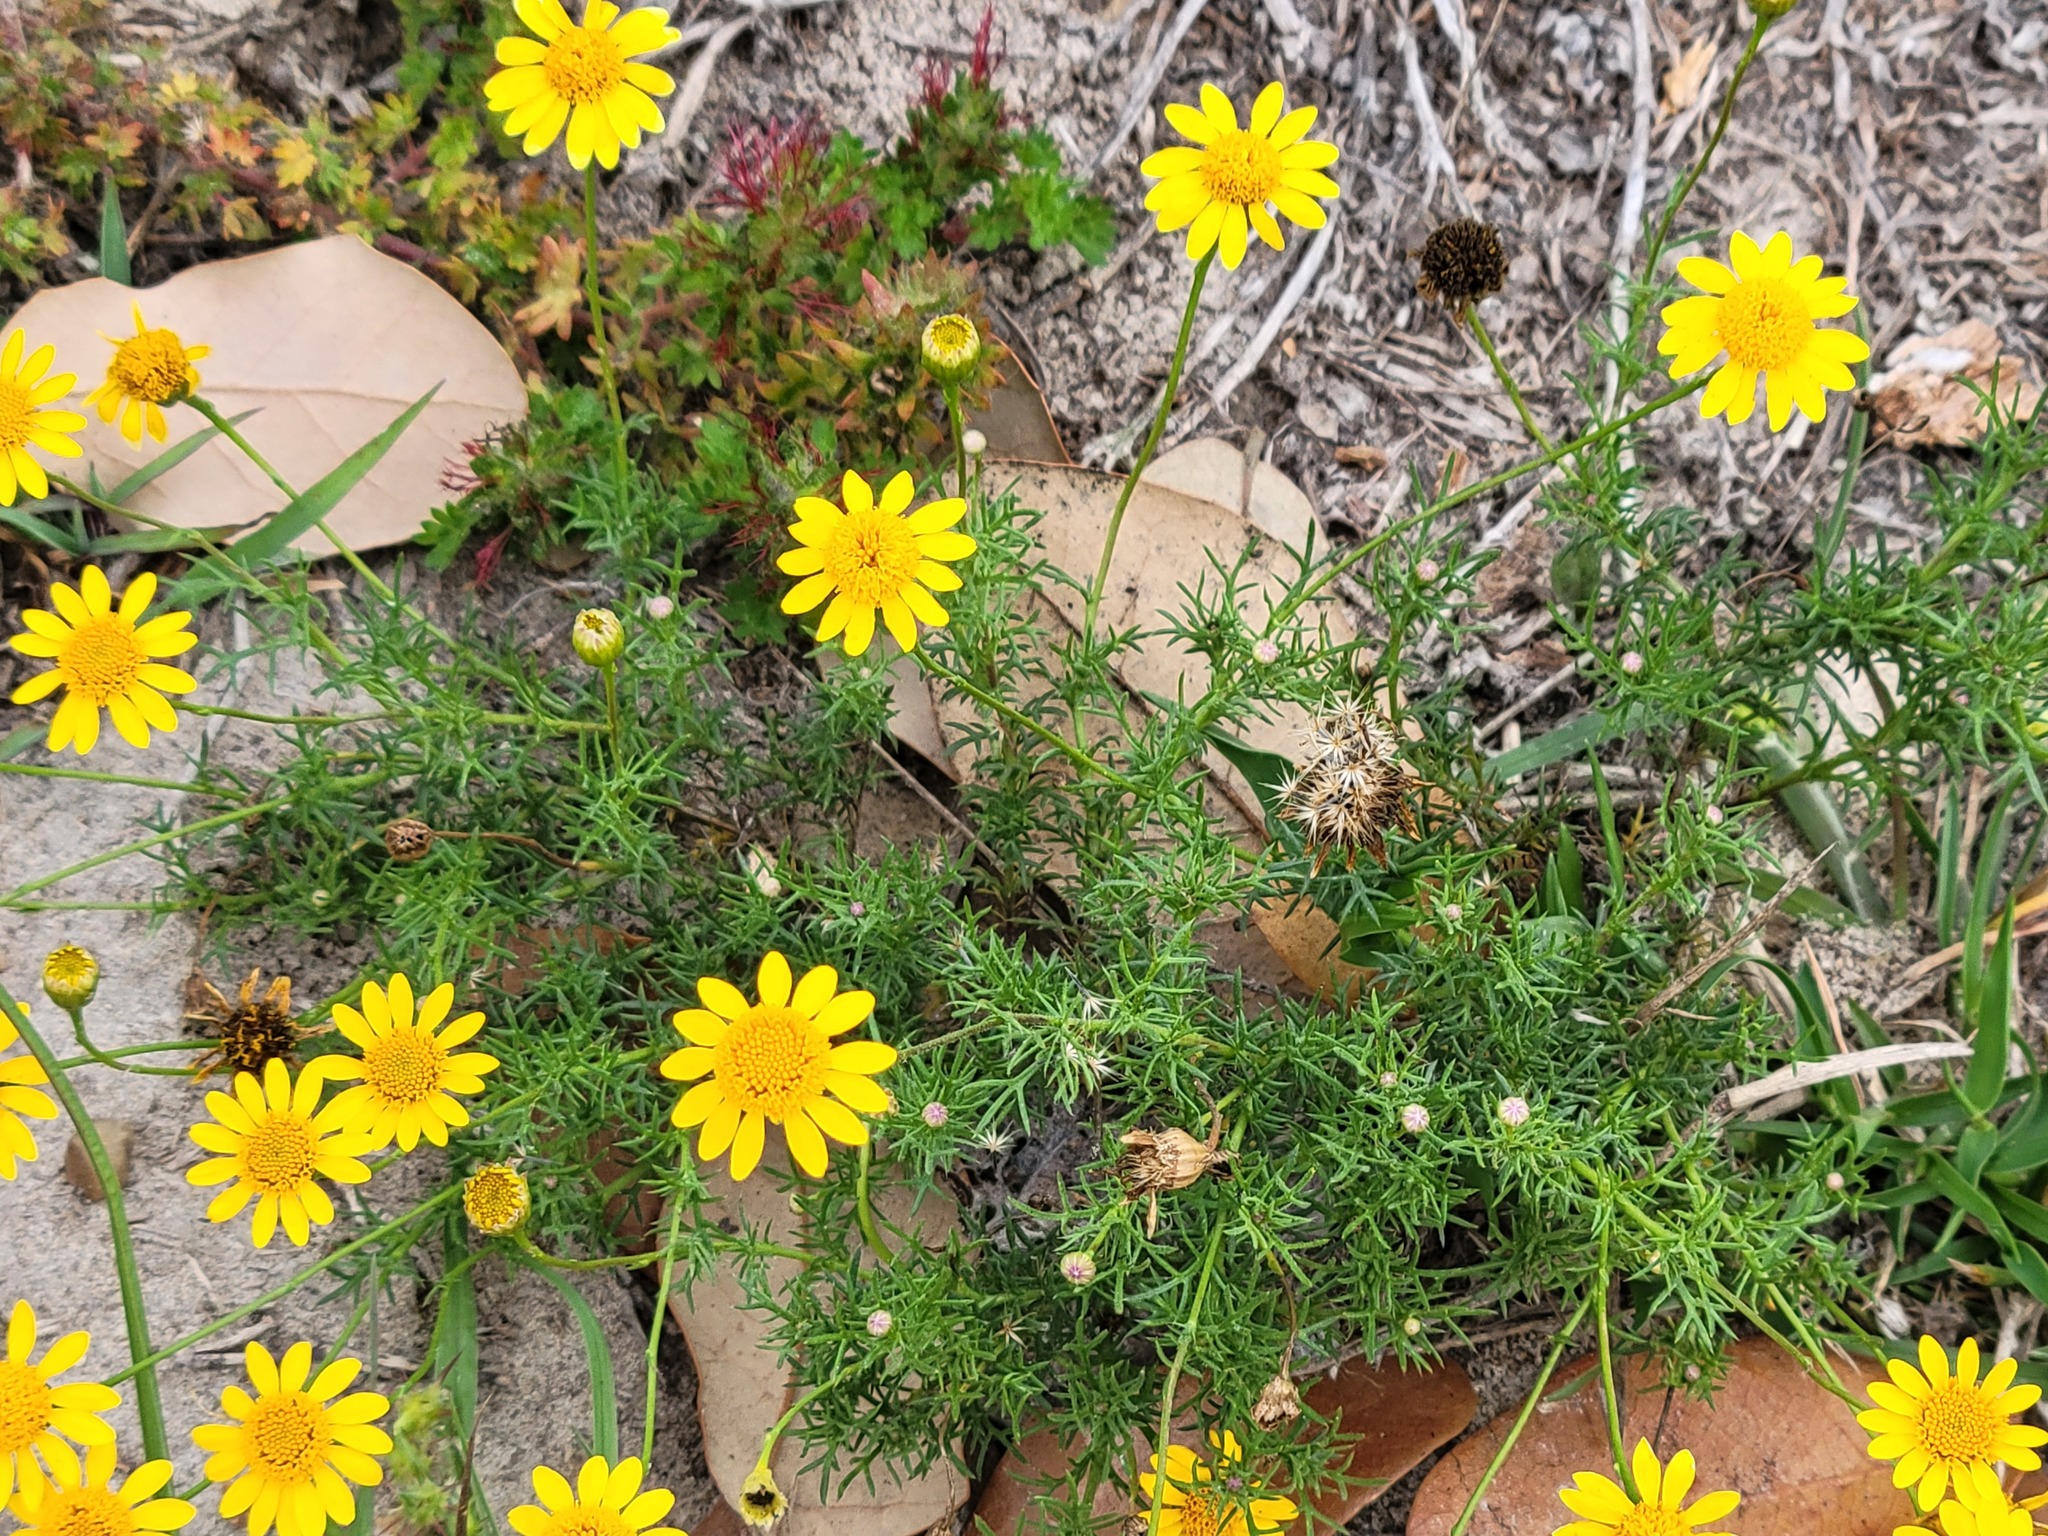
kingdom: Plantae
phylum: Tracheophyta
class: Magnoliopsida
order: Asterales
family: Asteraceae
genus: Thymophylla
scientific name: Thymophylla tenuiloba
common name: Dahlberg's daisy
